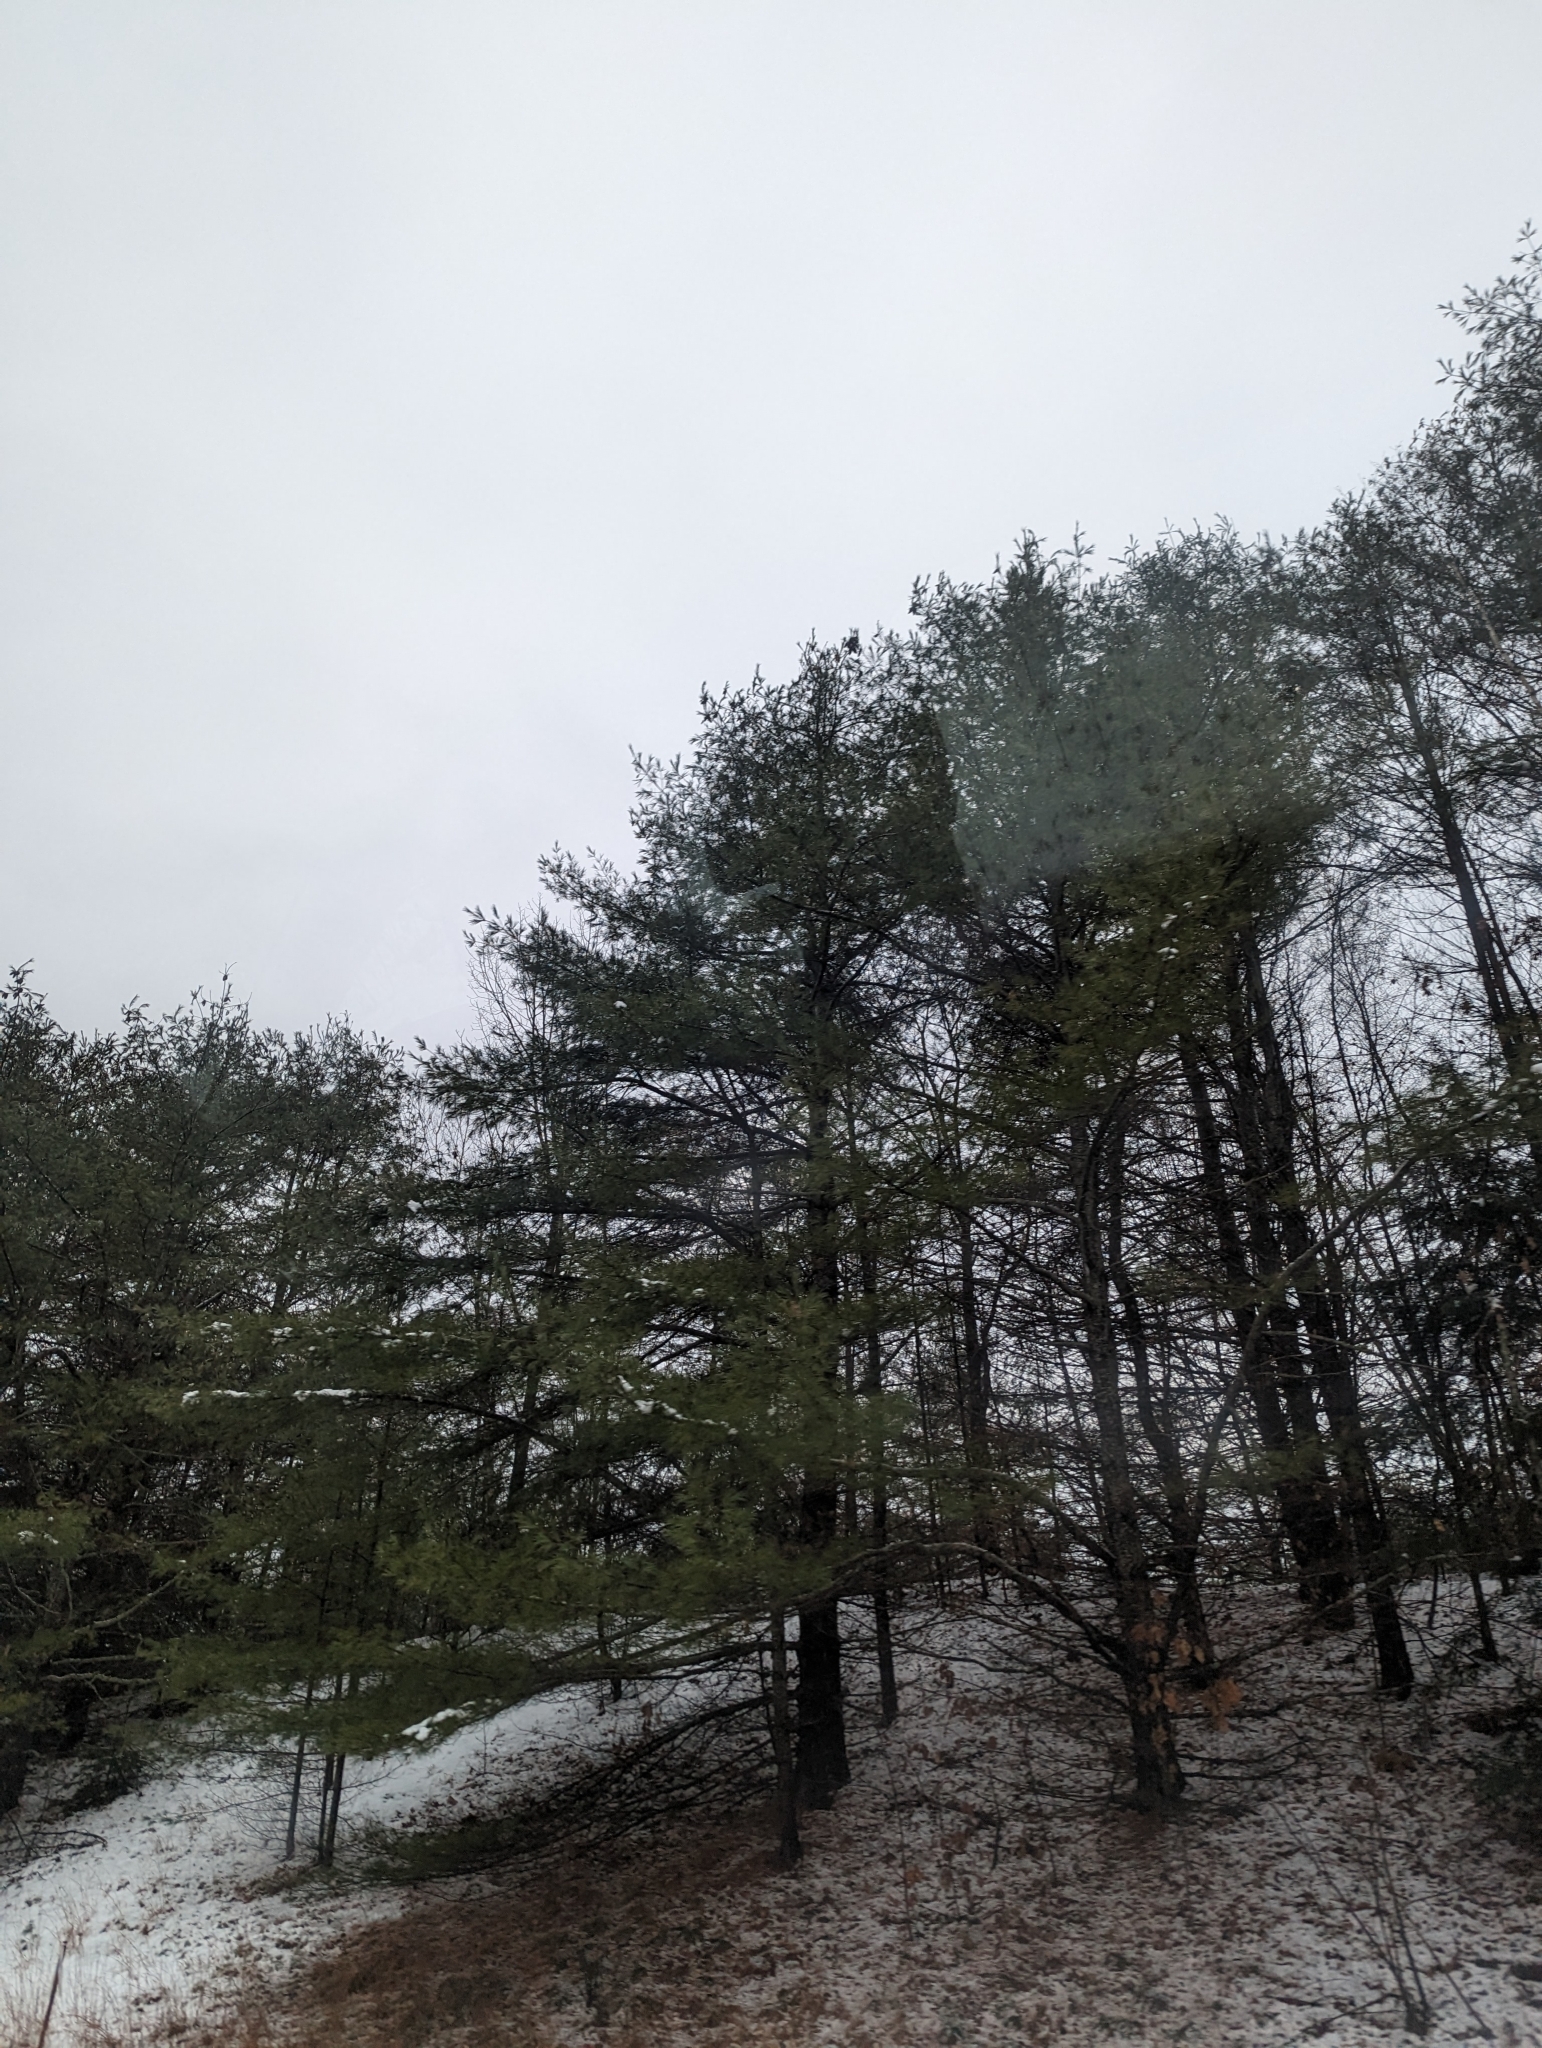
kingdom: Plantae
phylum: Tracheophyta
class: Pinopsida
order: Pinales
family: Pinaceae
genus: Pinus
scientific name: Pinus strobus
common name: Weymouth pine
